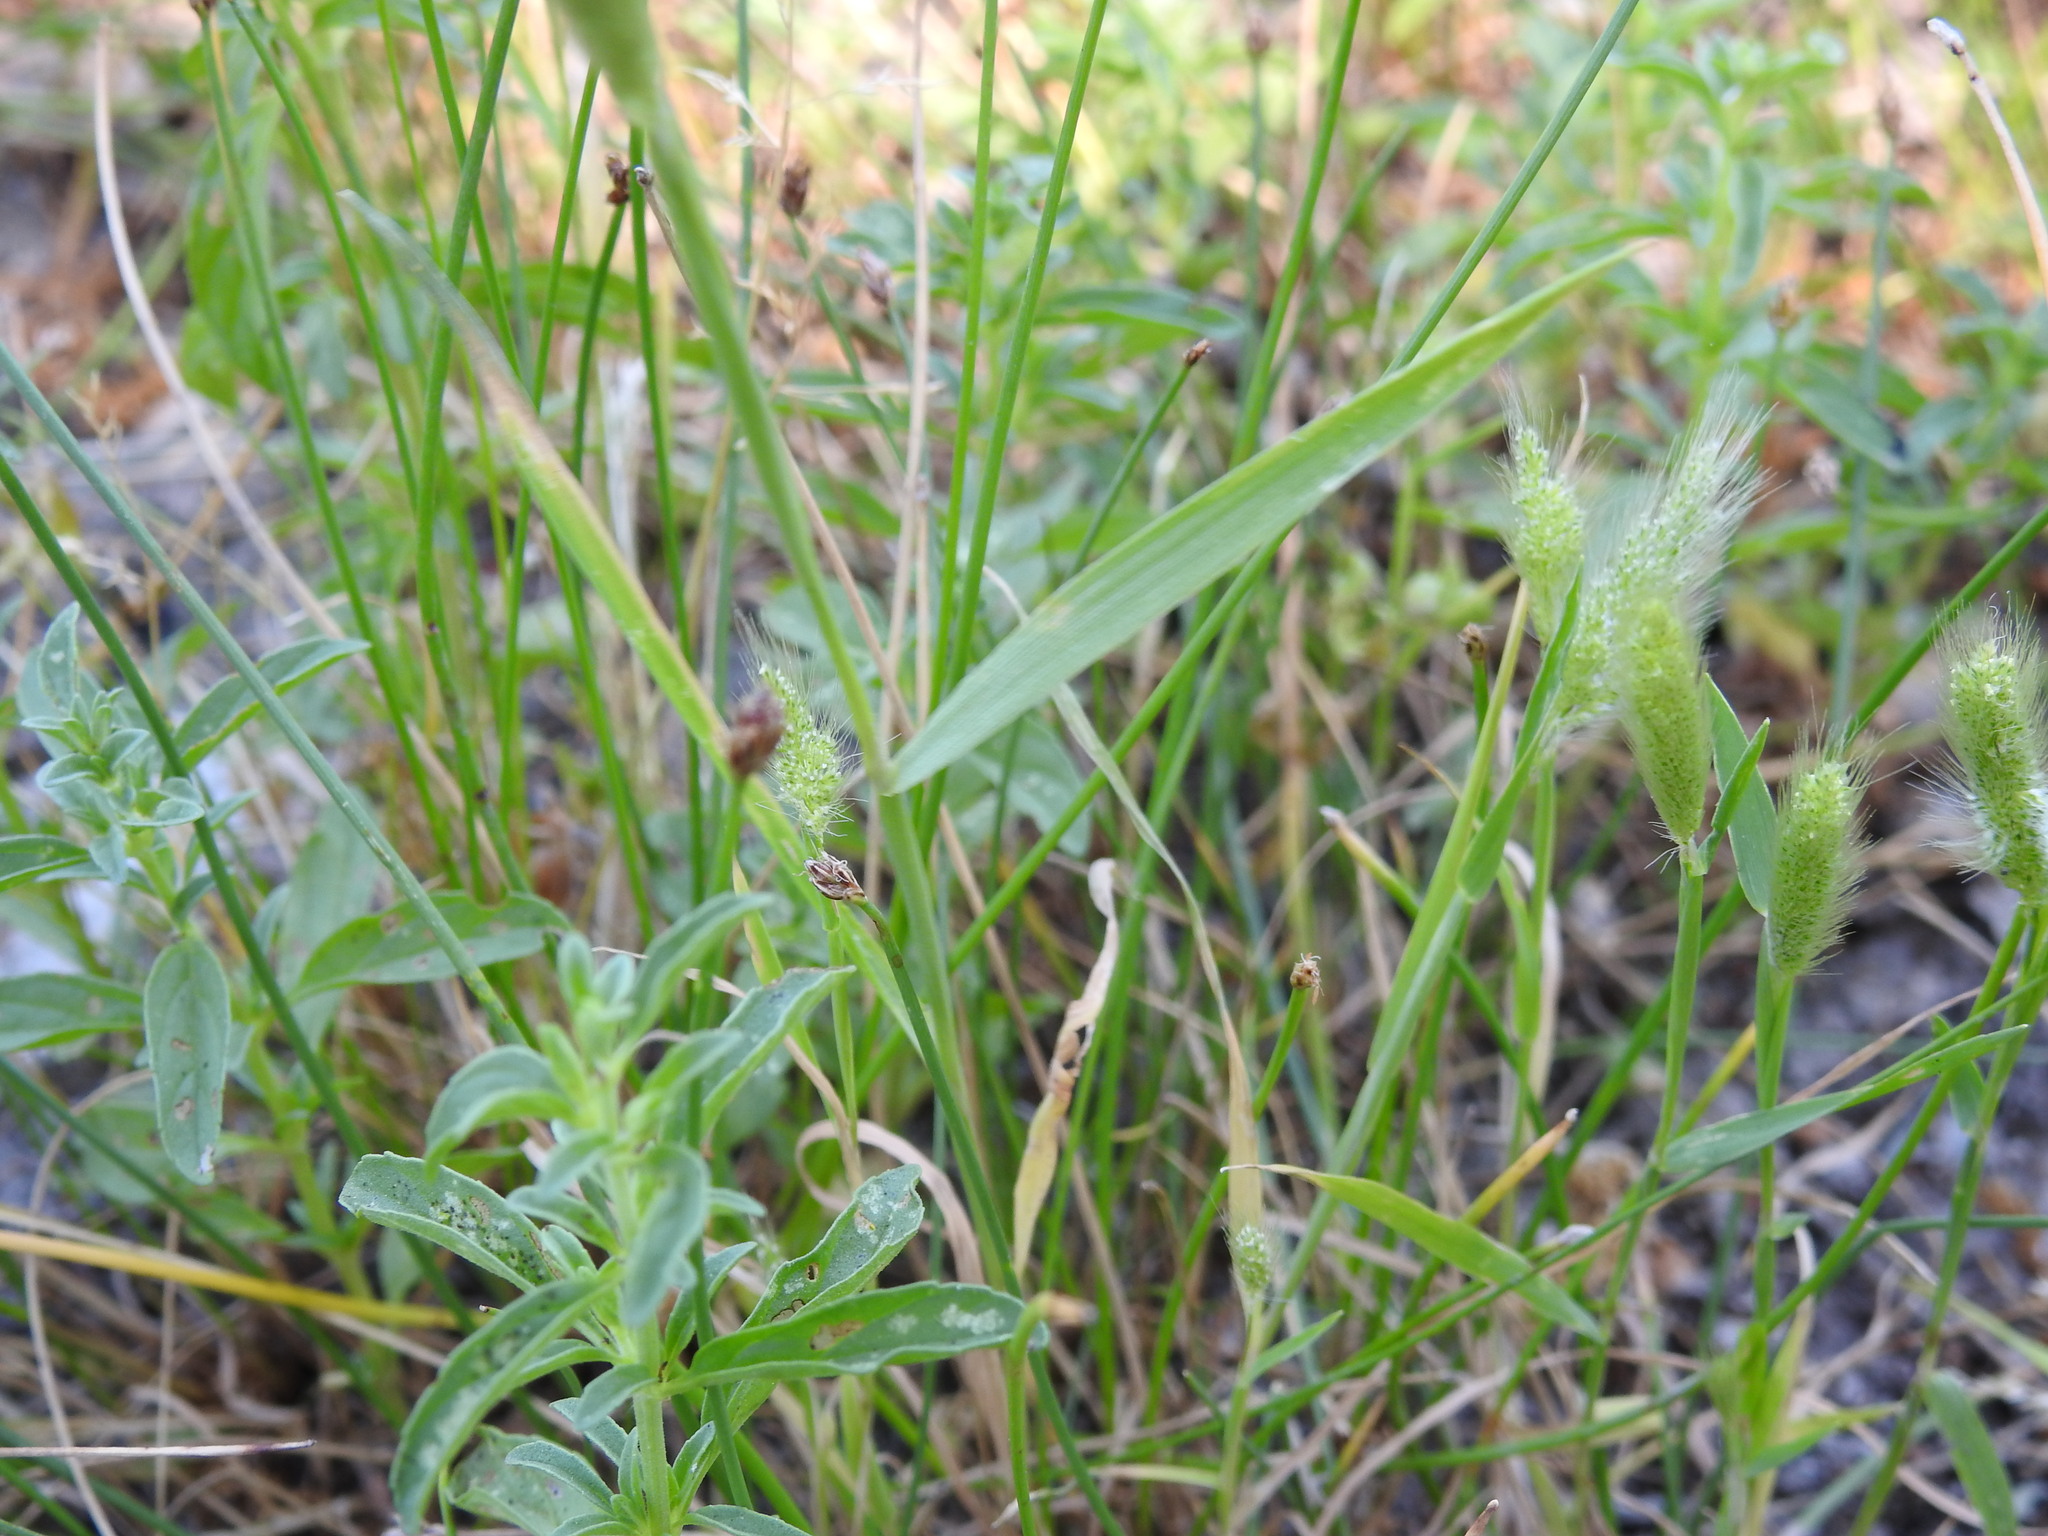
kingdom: Plantae
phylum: Tracheophyta
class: Liliopsida
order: Poales
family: Poaceae
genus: Polypogon
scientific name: Polypogon monspeliensis
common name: Annual rabbitsfoot grass
